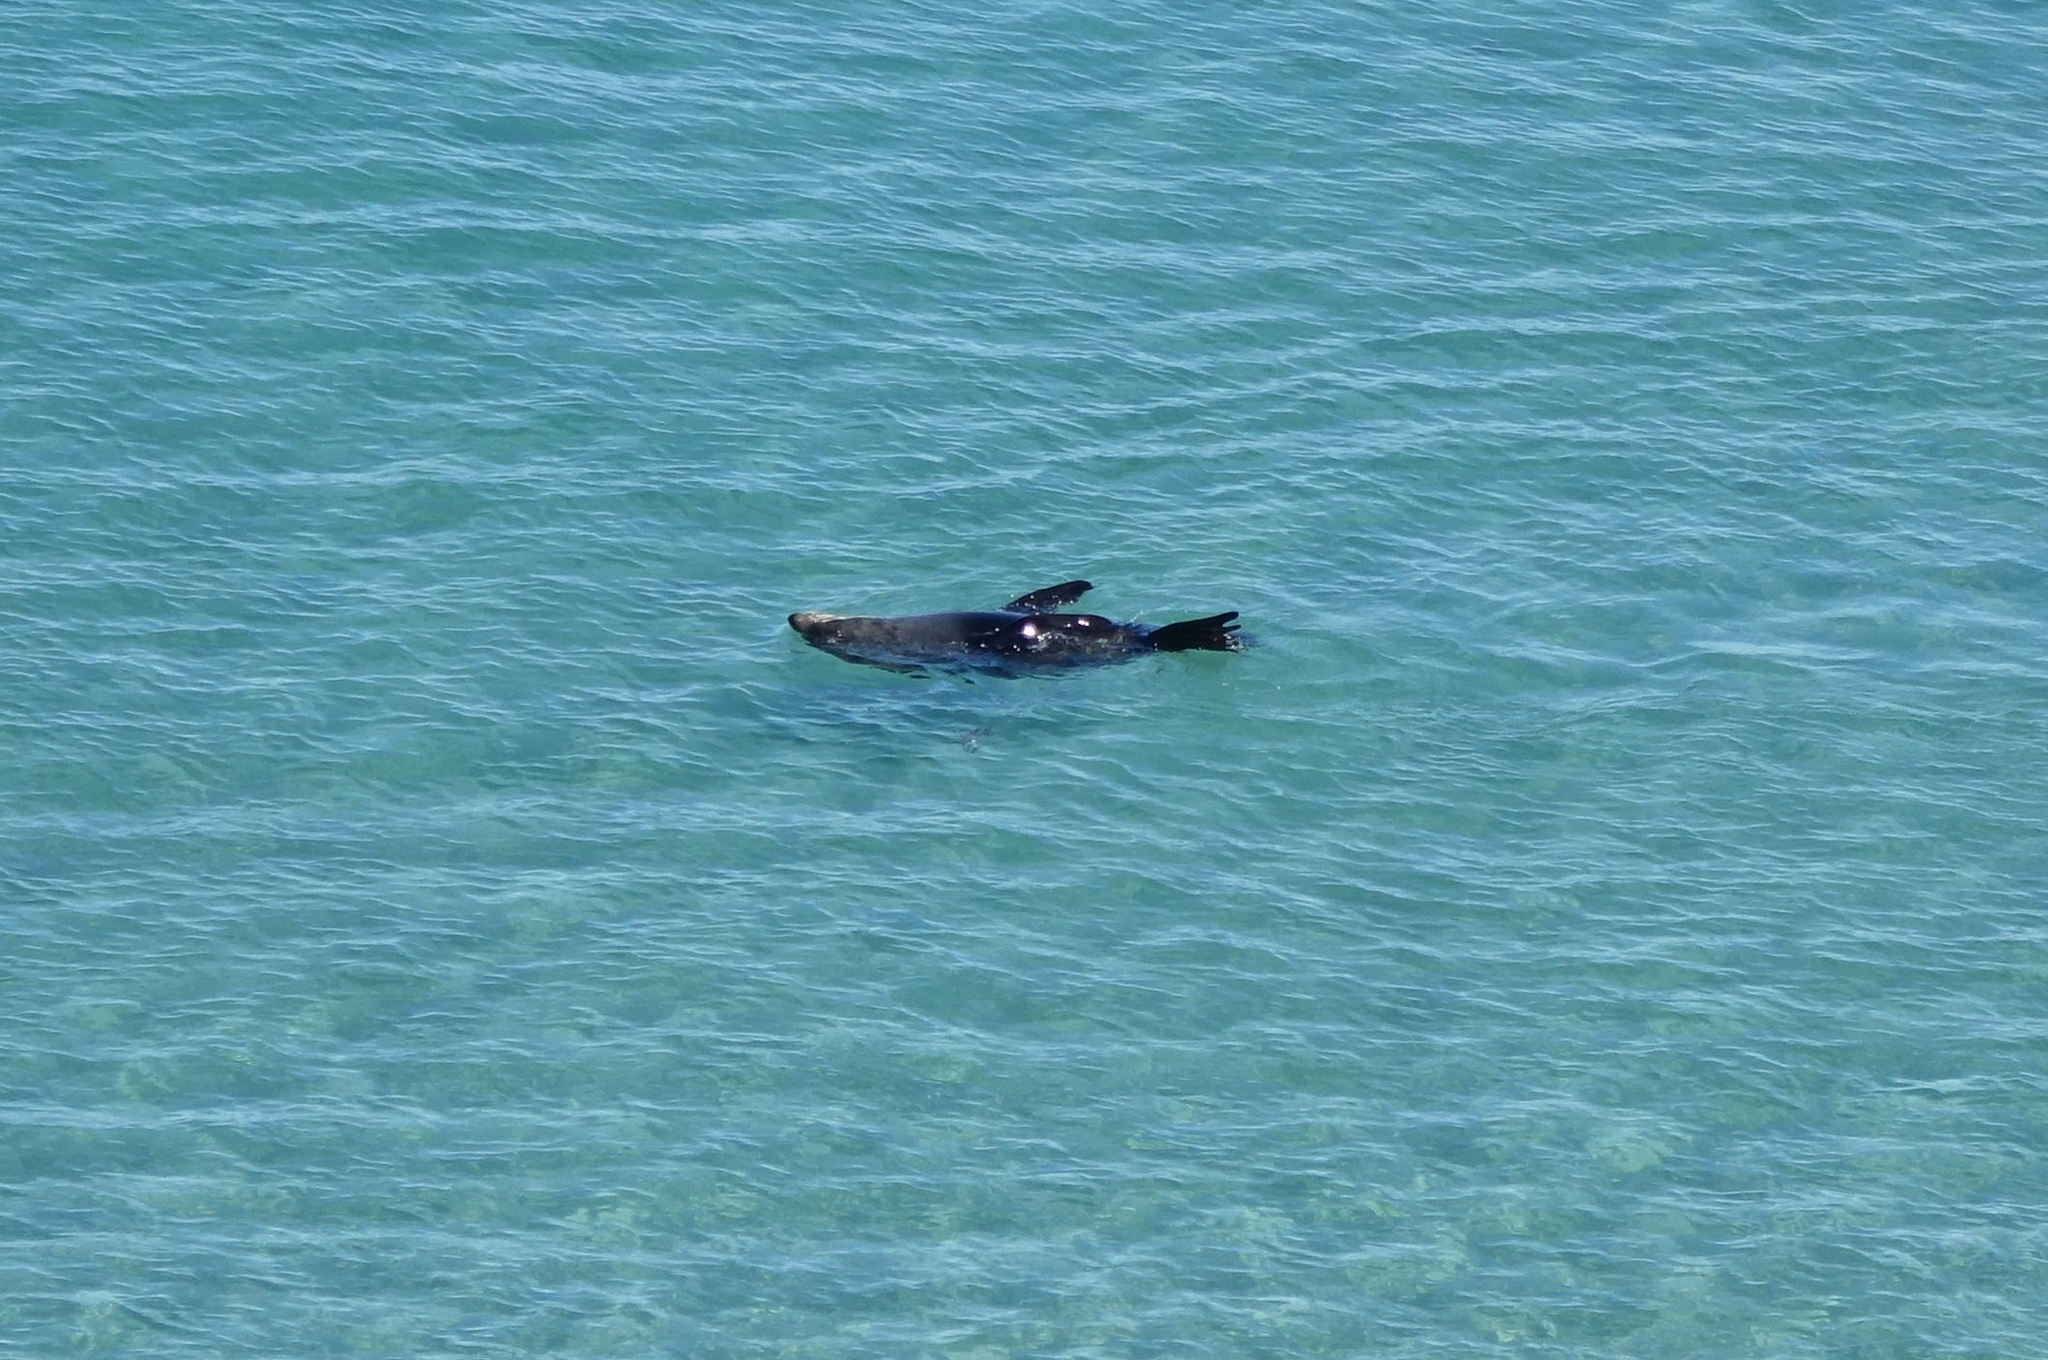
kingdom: Animalia
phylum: Chordata
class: Mammalia
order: Carnivora
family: Otariidae
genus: Arctocephalus
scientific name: Arctocephalus forsteri
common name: New zealand fur seal
